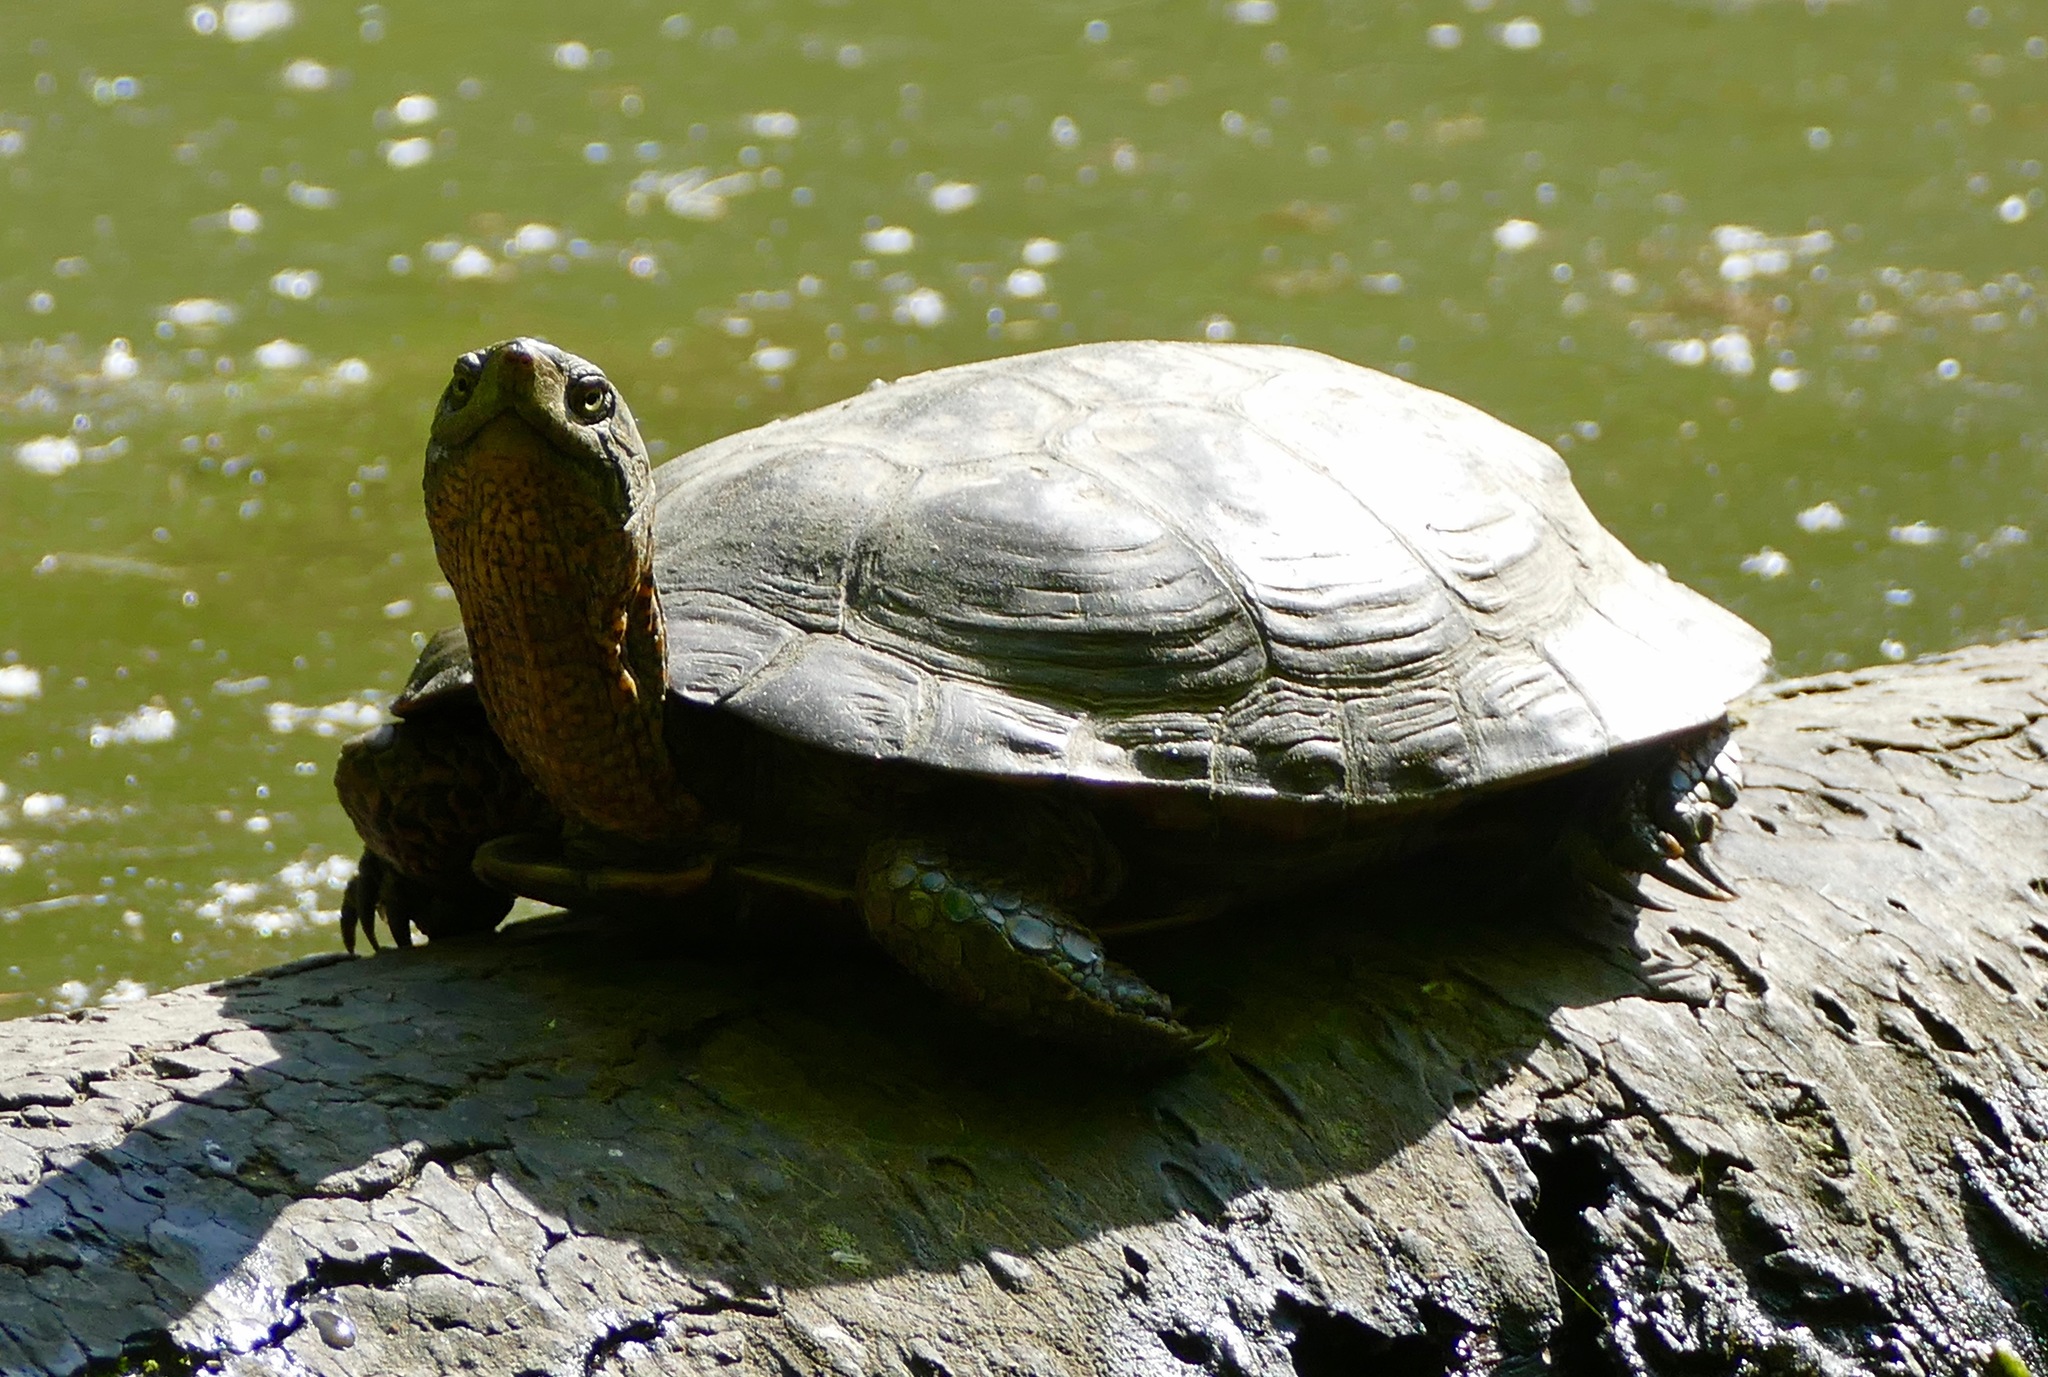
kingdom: Animalia
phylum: Chordata
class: Testudines
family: Emydidae
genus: Actinemys
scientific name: Actinemys marmorata
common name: Western pond turtle
